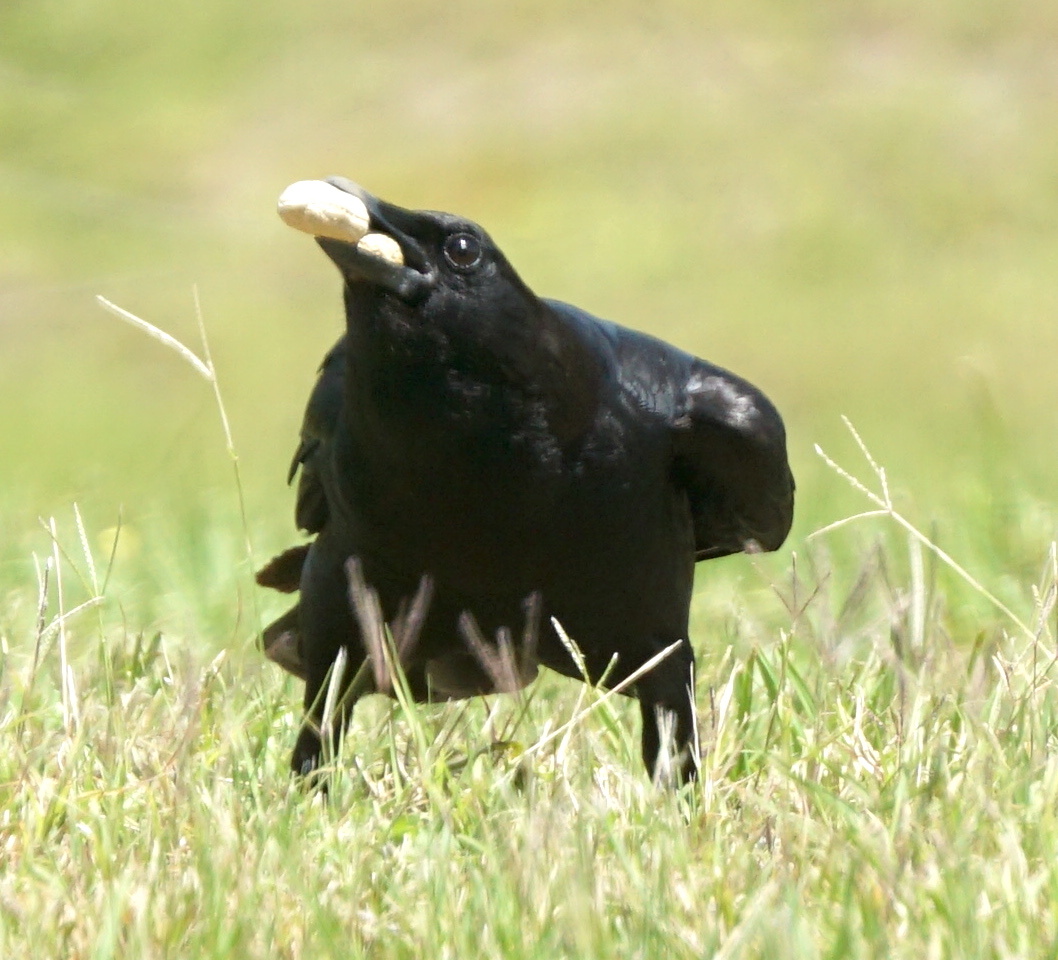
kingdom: Animalia
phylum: Chordata
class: Aves
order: Passeriformes
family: Corvidae
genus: Corvus
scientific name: Corvus
